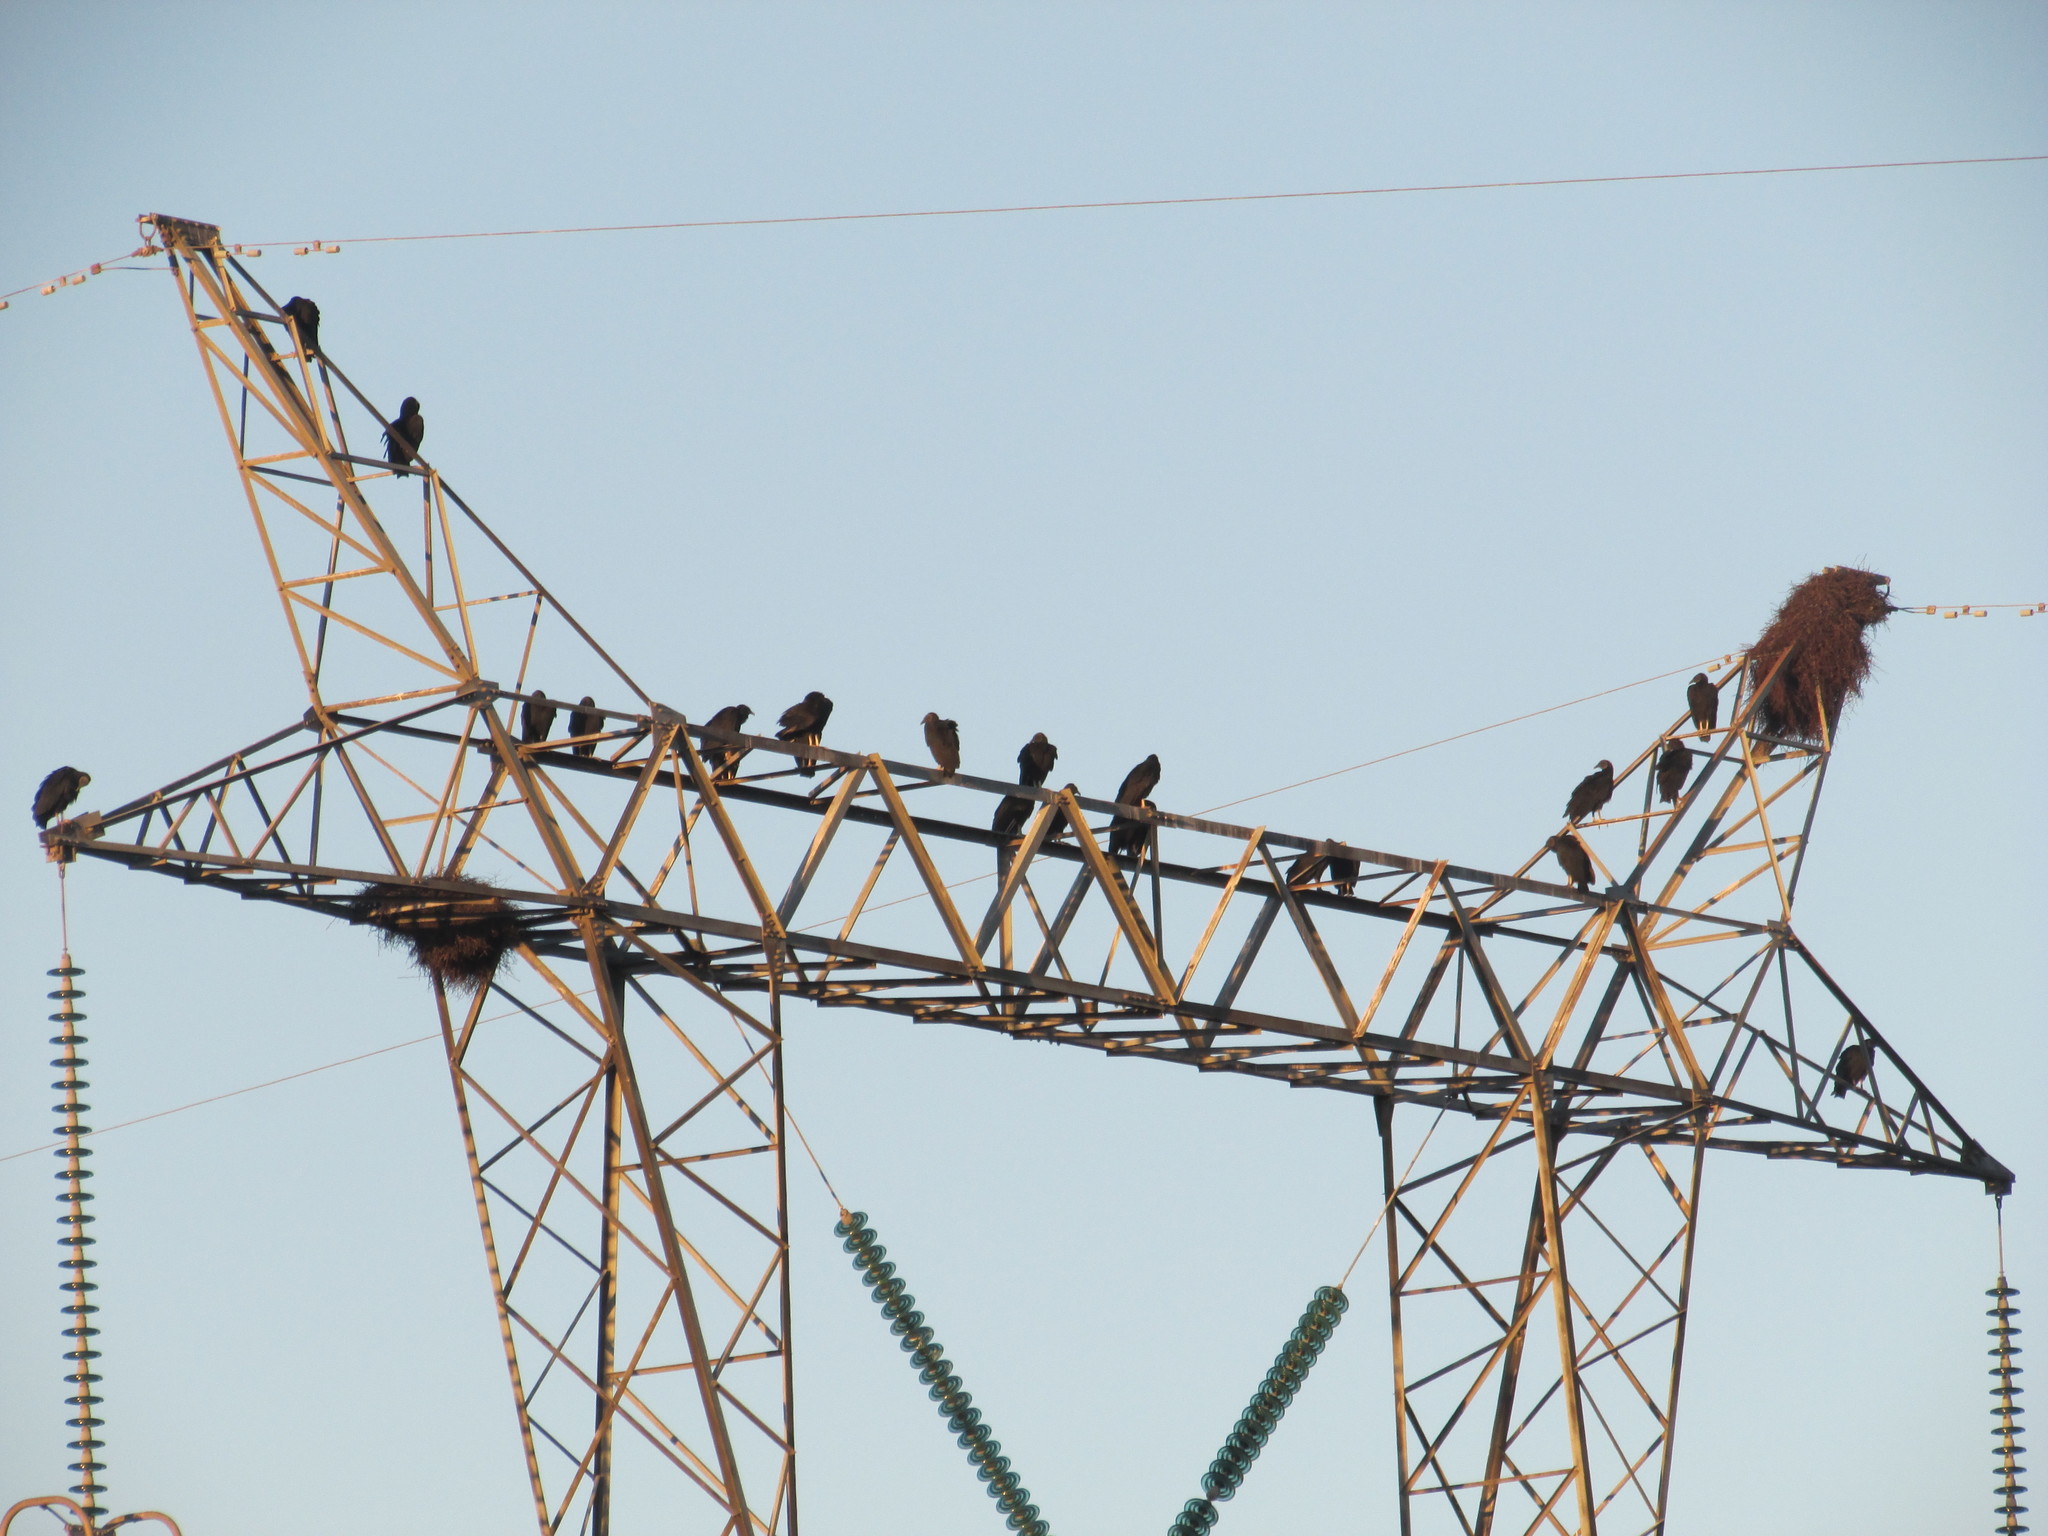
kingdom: Animalia
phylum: Chordata
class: Aves
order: Accipitriformes
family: Cathartidae
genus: Coragyps
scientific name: Coragyps atratus
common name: Black vulture
